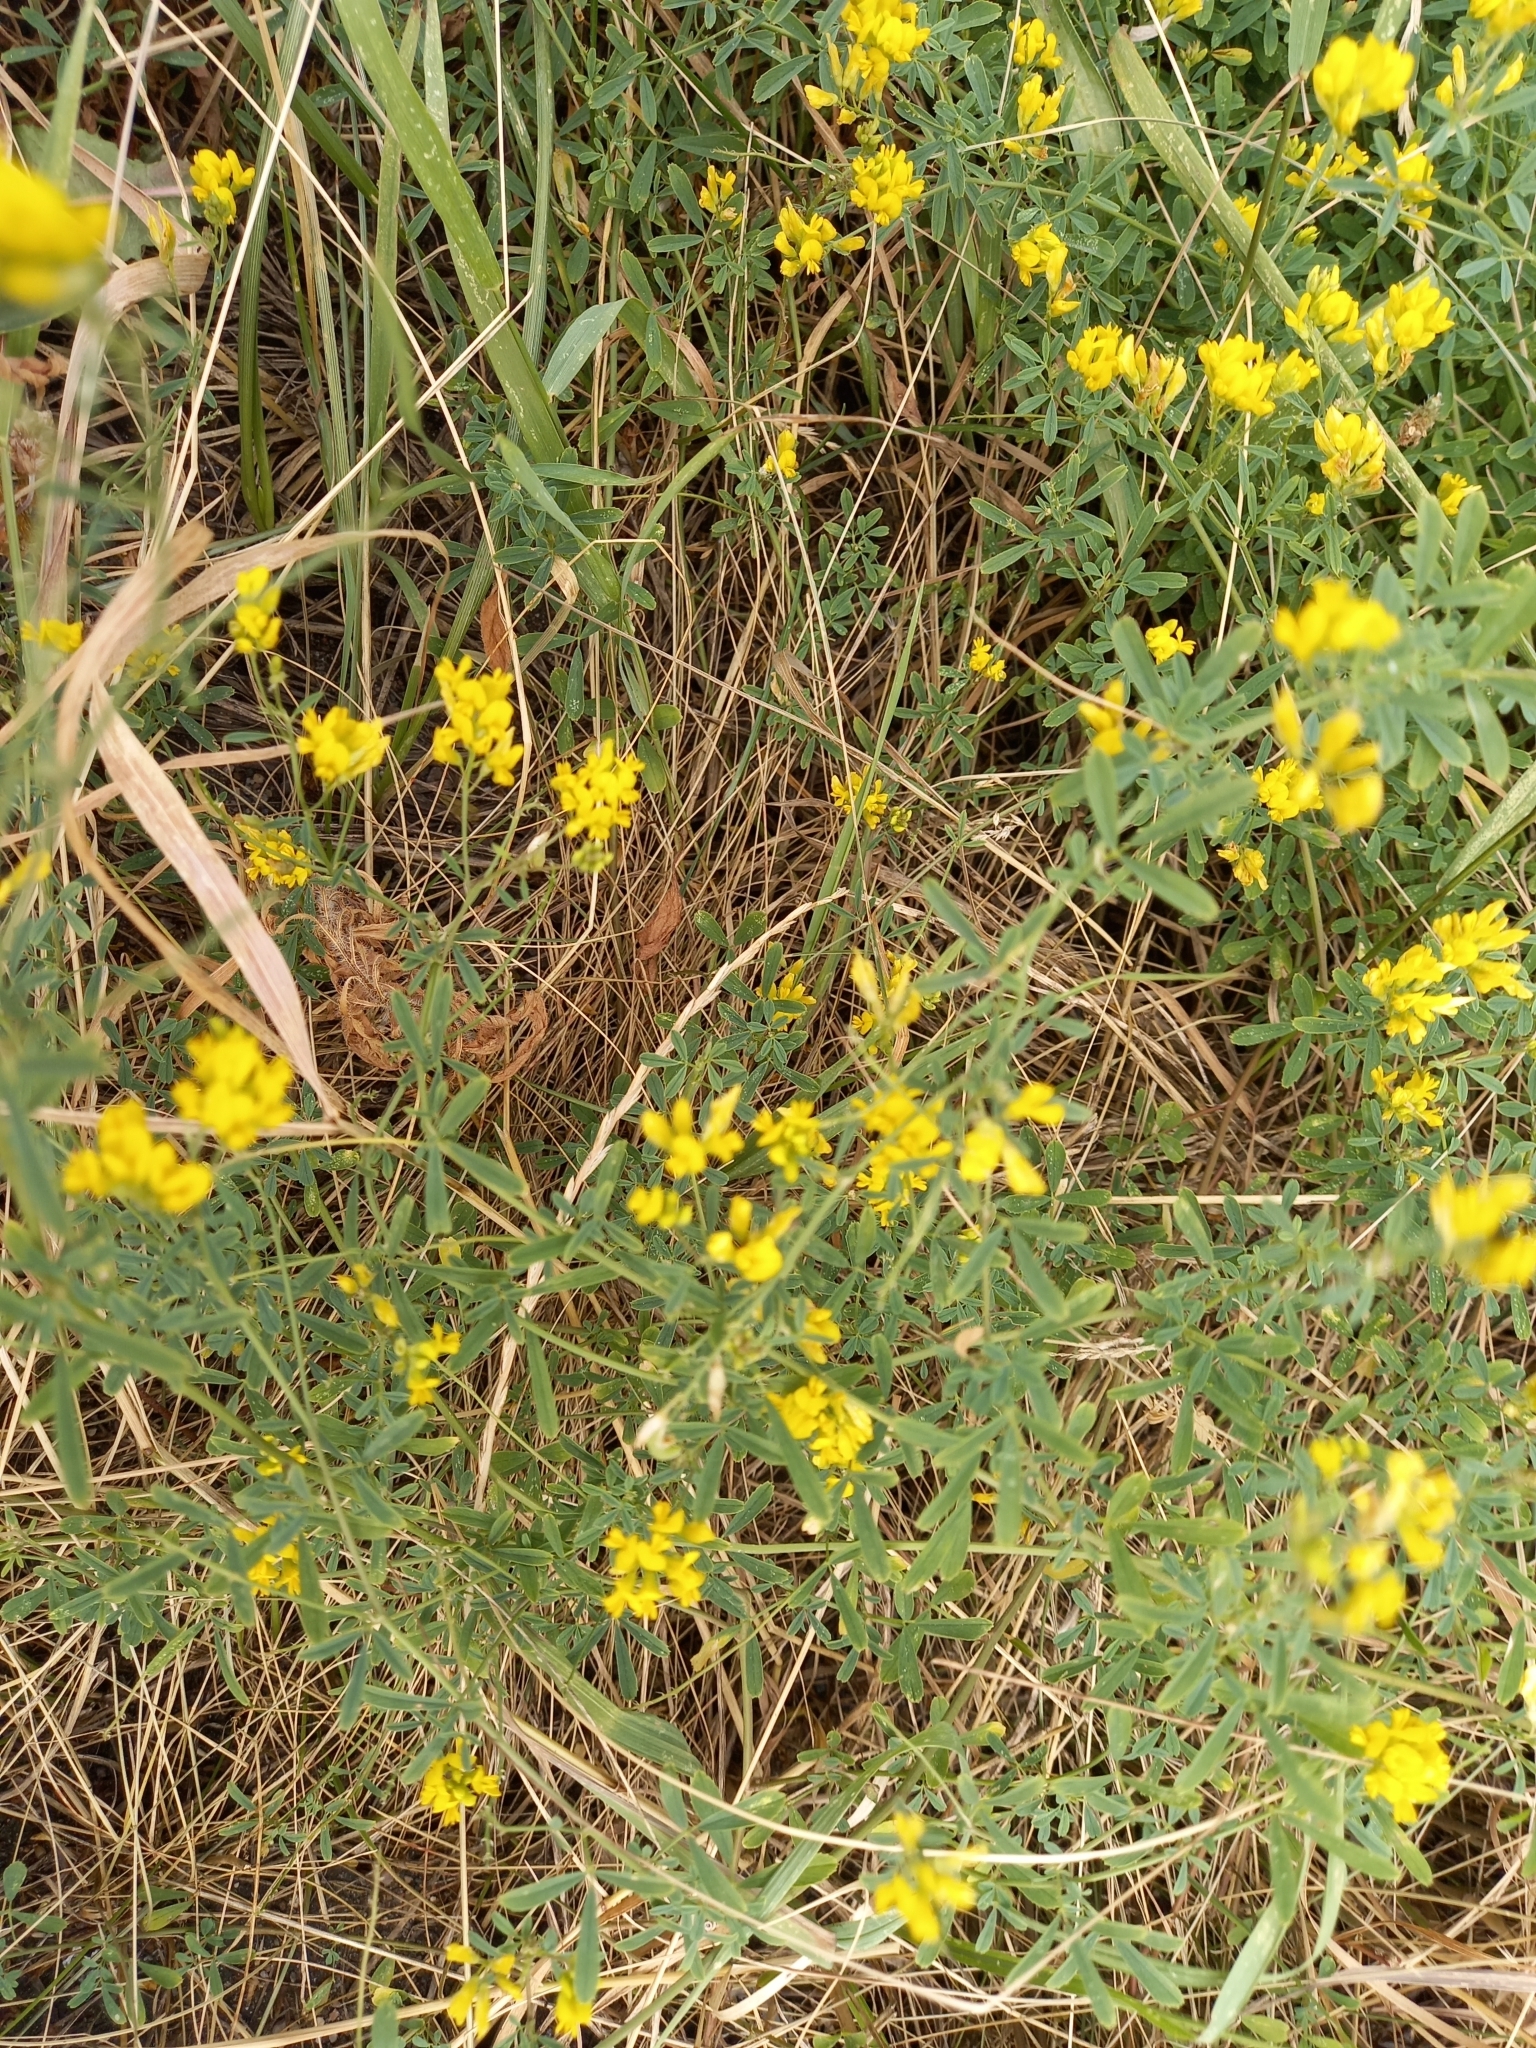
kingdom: Plantae
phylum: Tracheophyta
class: Magnoliopsida
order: Fabales
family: Fabaceae
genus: Medicago
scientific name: Medicago falcata
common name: Sickle medick
